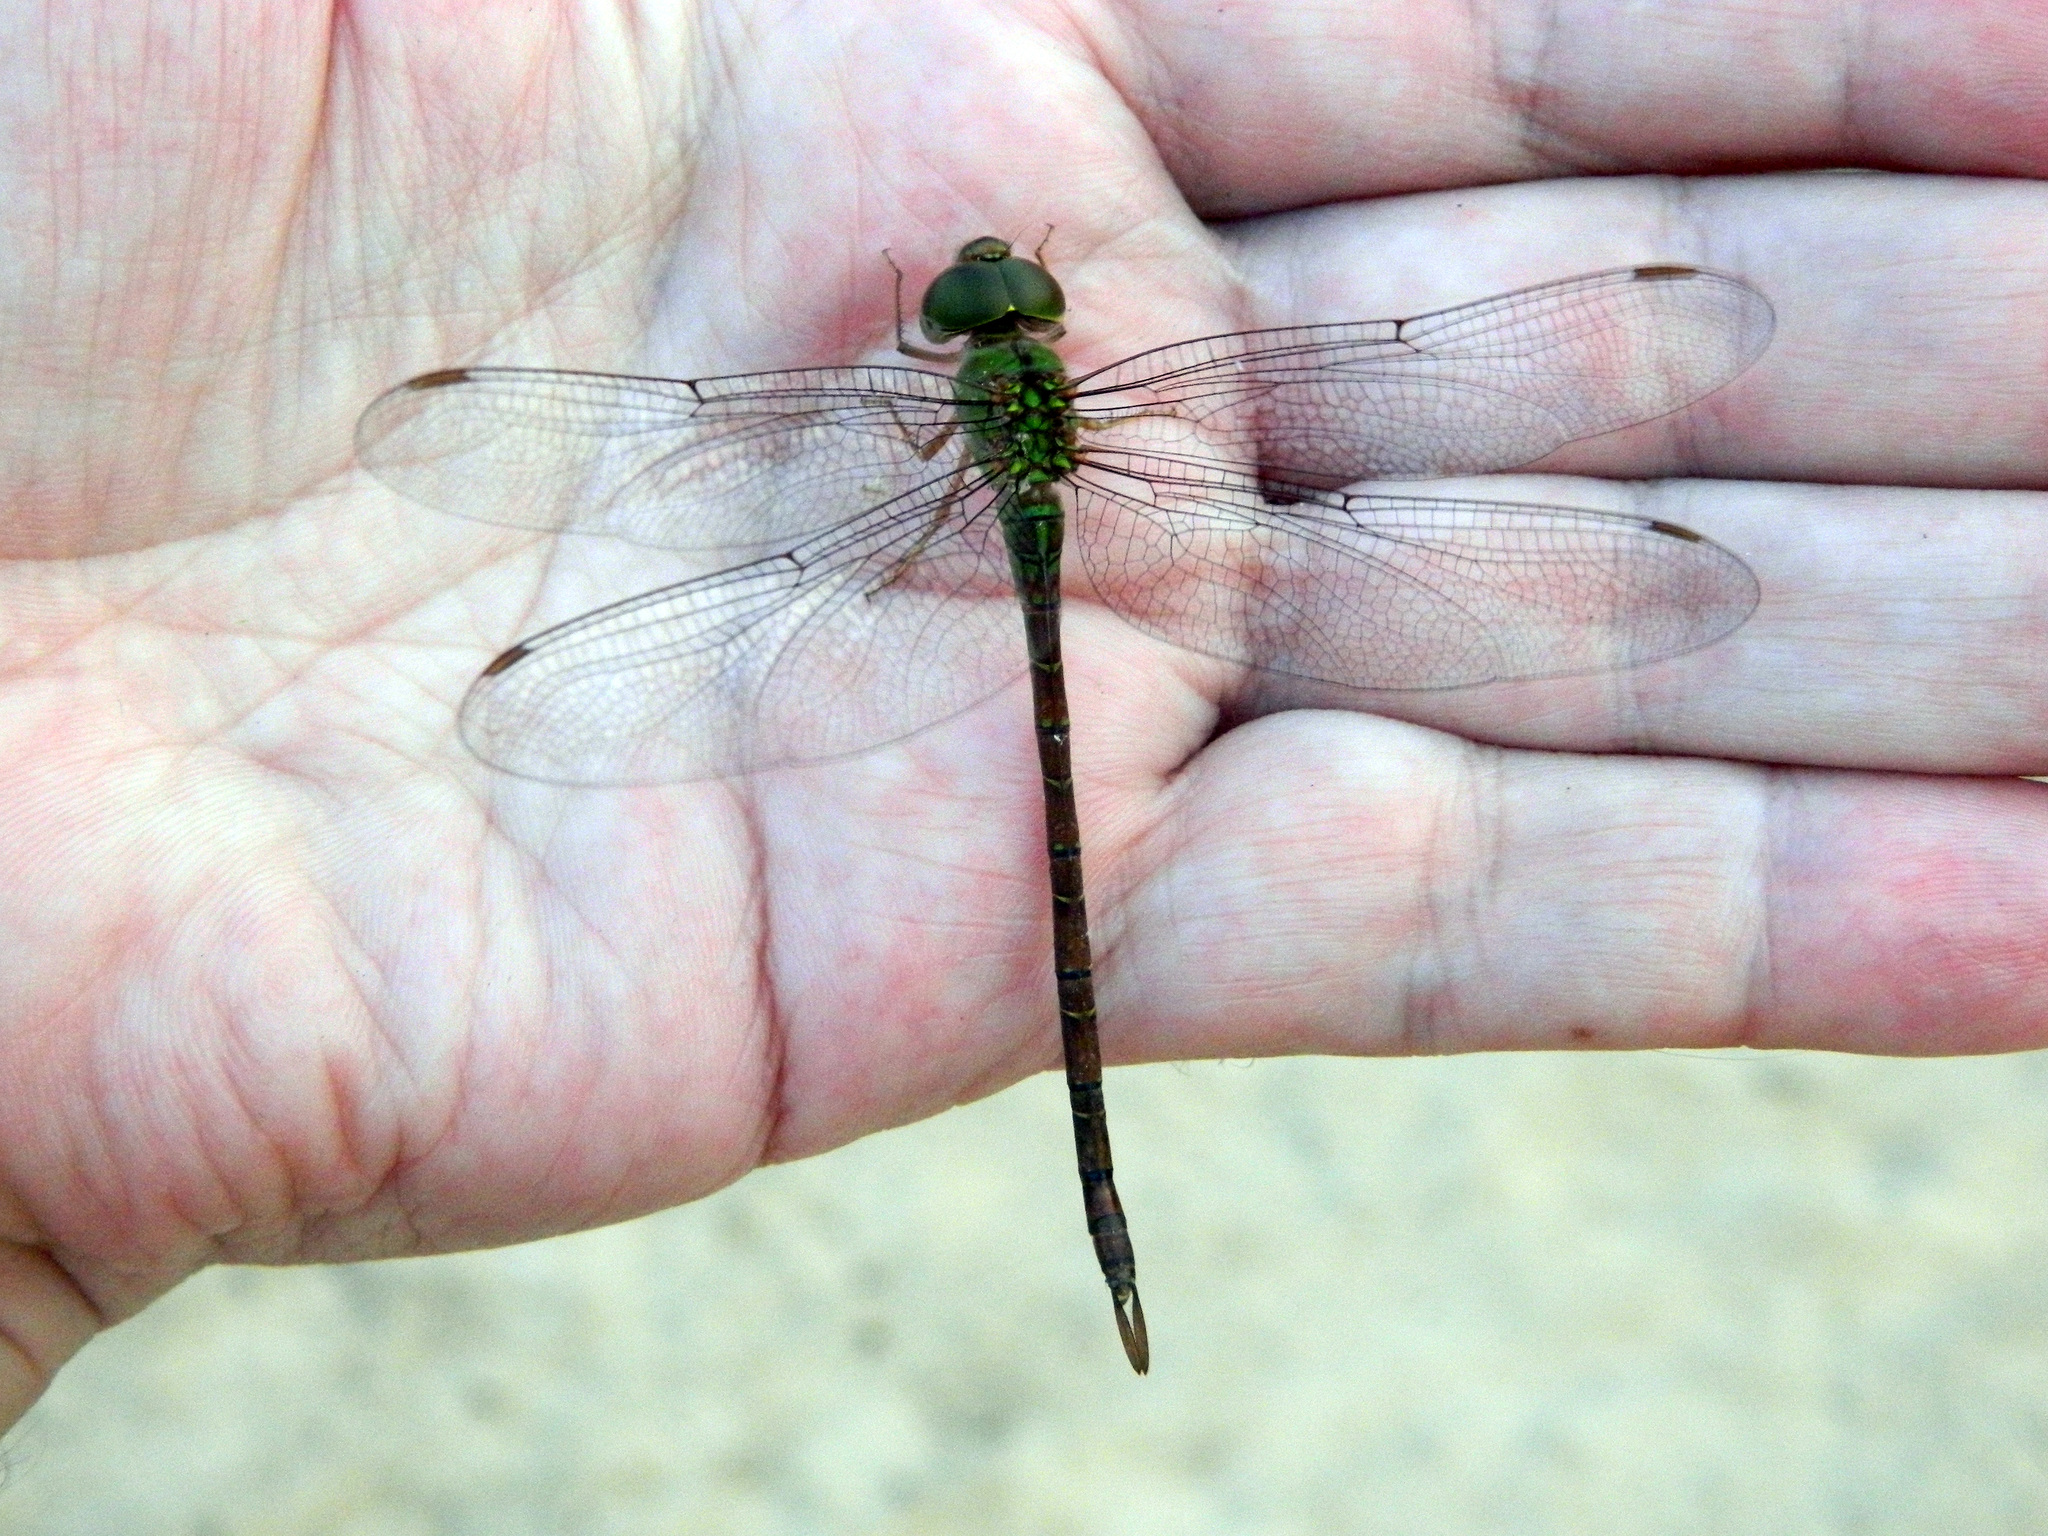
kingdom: Animalia
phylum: Arthropoda
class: Insecta
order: Odonata
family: Aeshnidae
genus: Triacanthagyna
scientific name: Triacanthagyna septima
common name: Pale-green darner
